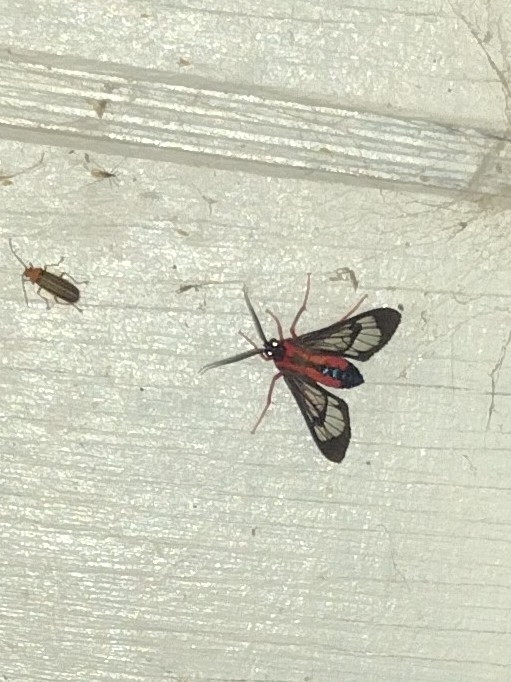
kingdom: Animalia
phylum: Arthropoda
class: Insecta
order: Lepidoptera
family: Erebidae
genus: Cosmosoma
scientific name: Cosmosoma auge
